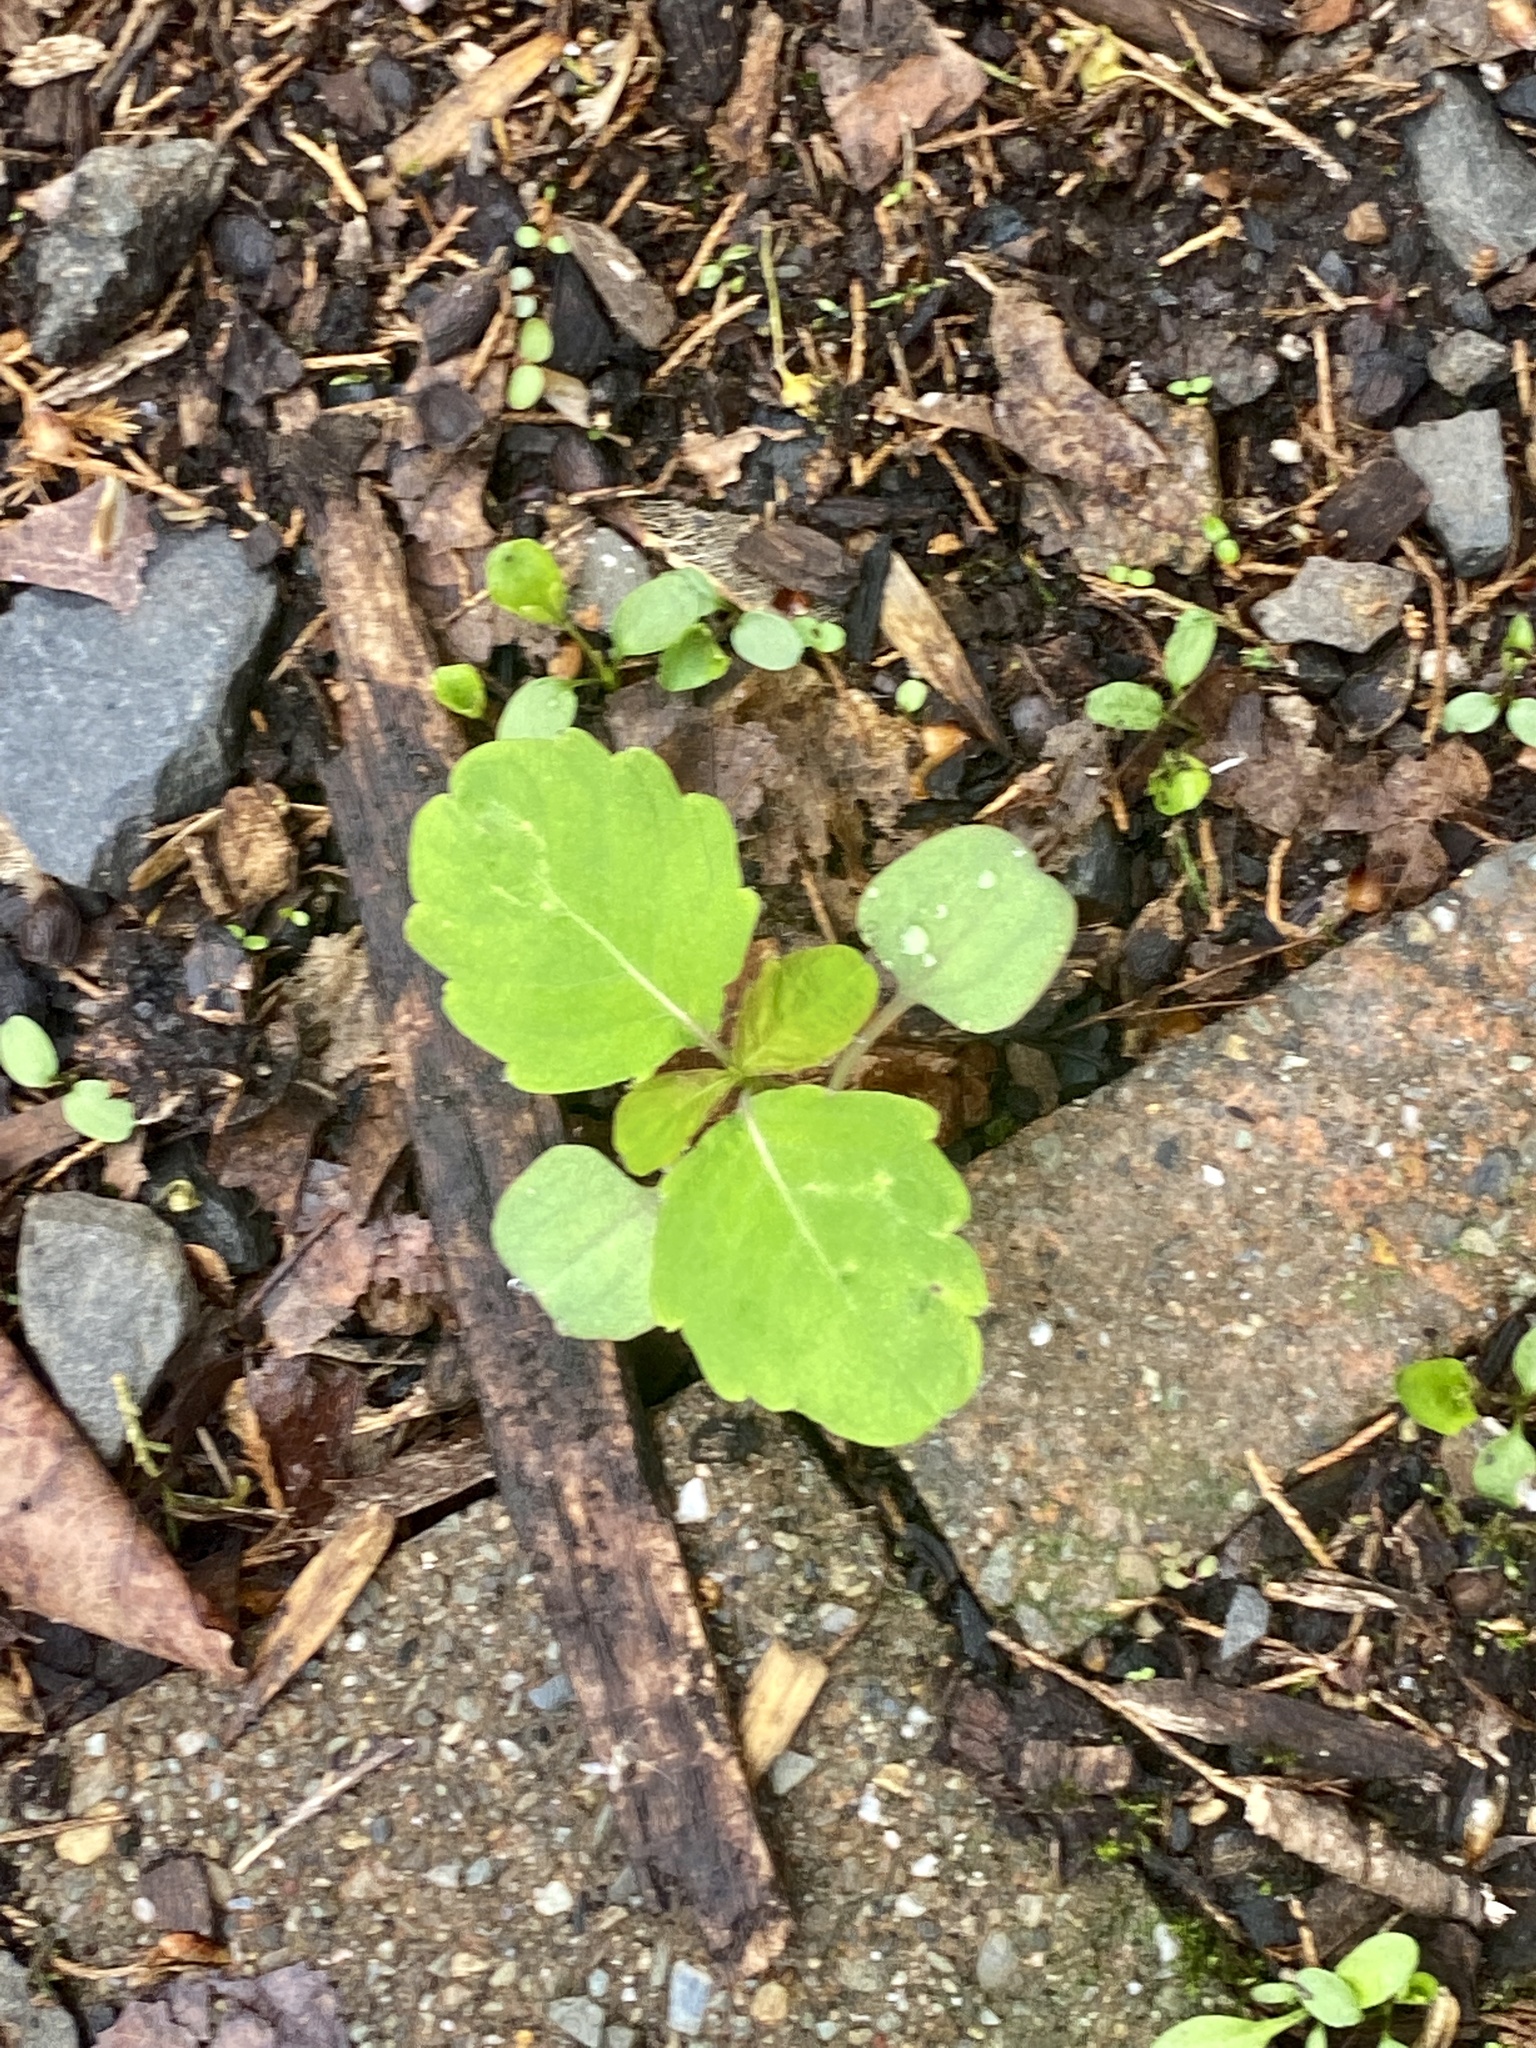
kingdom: Plantae
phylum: Tracheophyta
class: Magnoliopsida
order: Ericales
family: Balsaminaceae
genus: Impatiens
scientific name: Impatiens capensis
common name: Orange balsam
